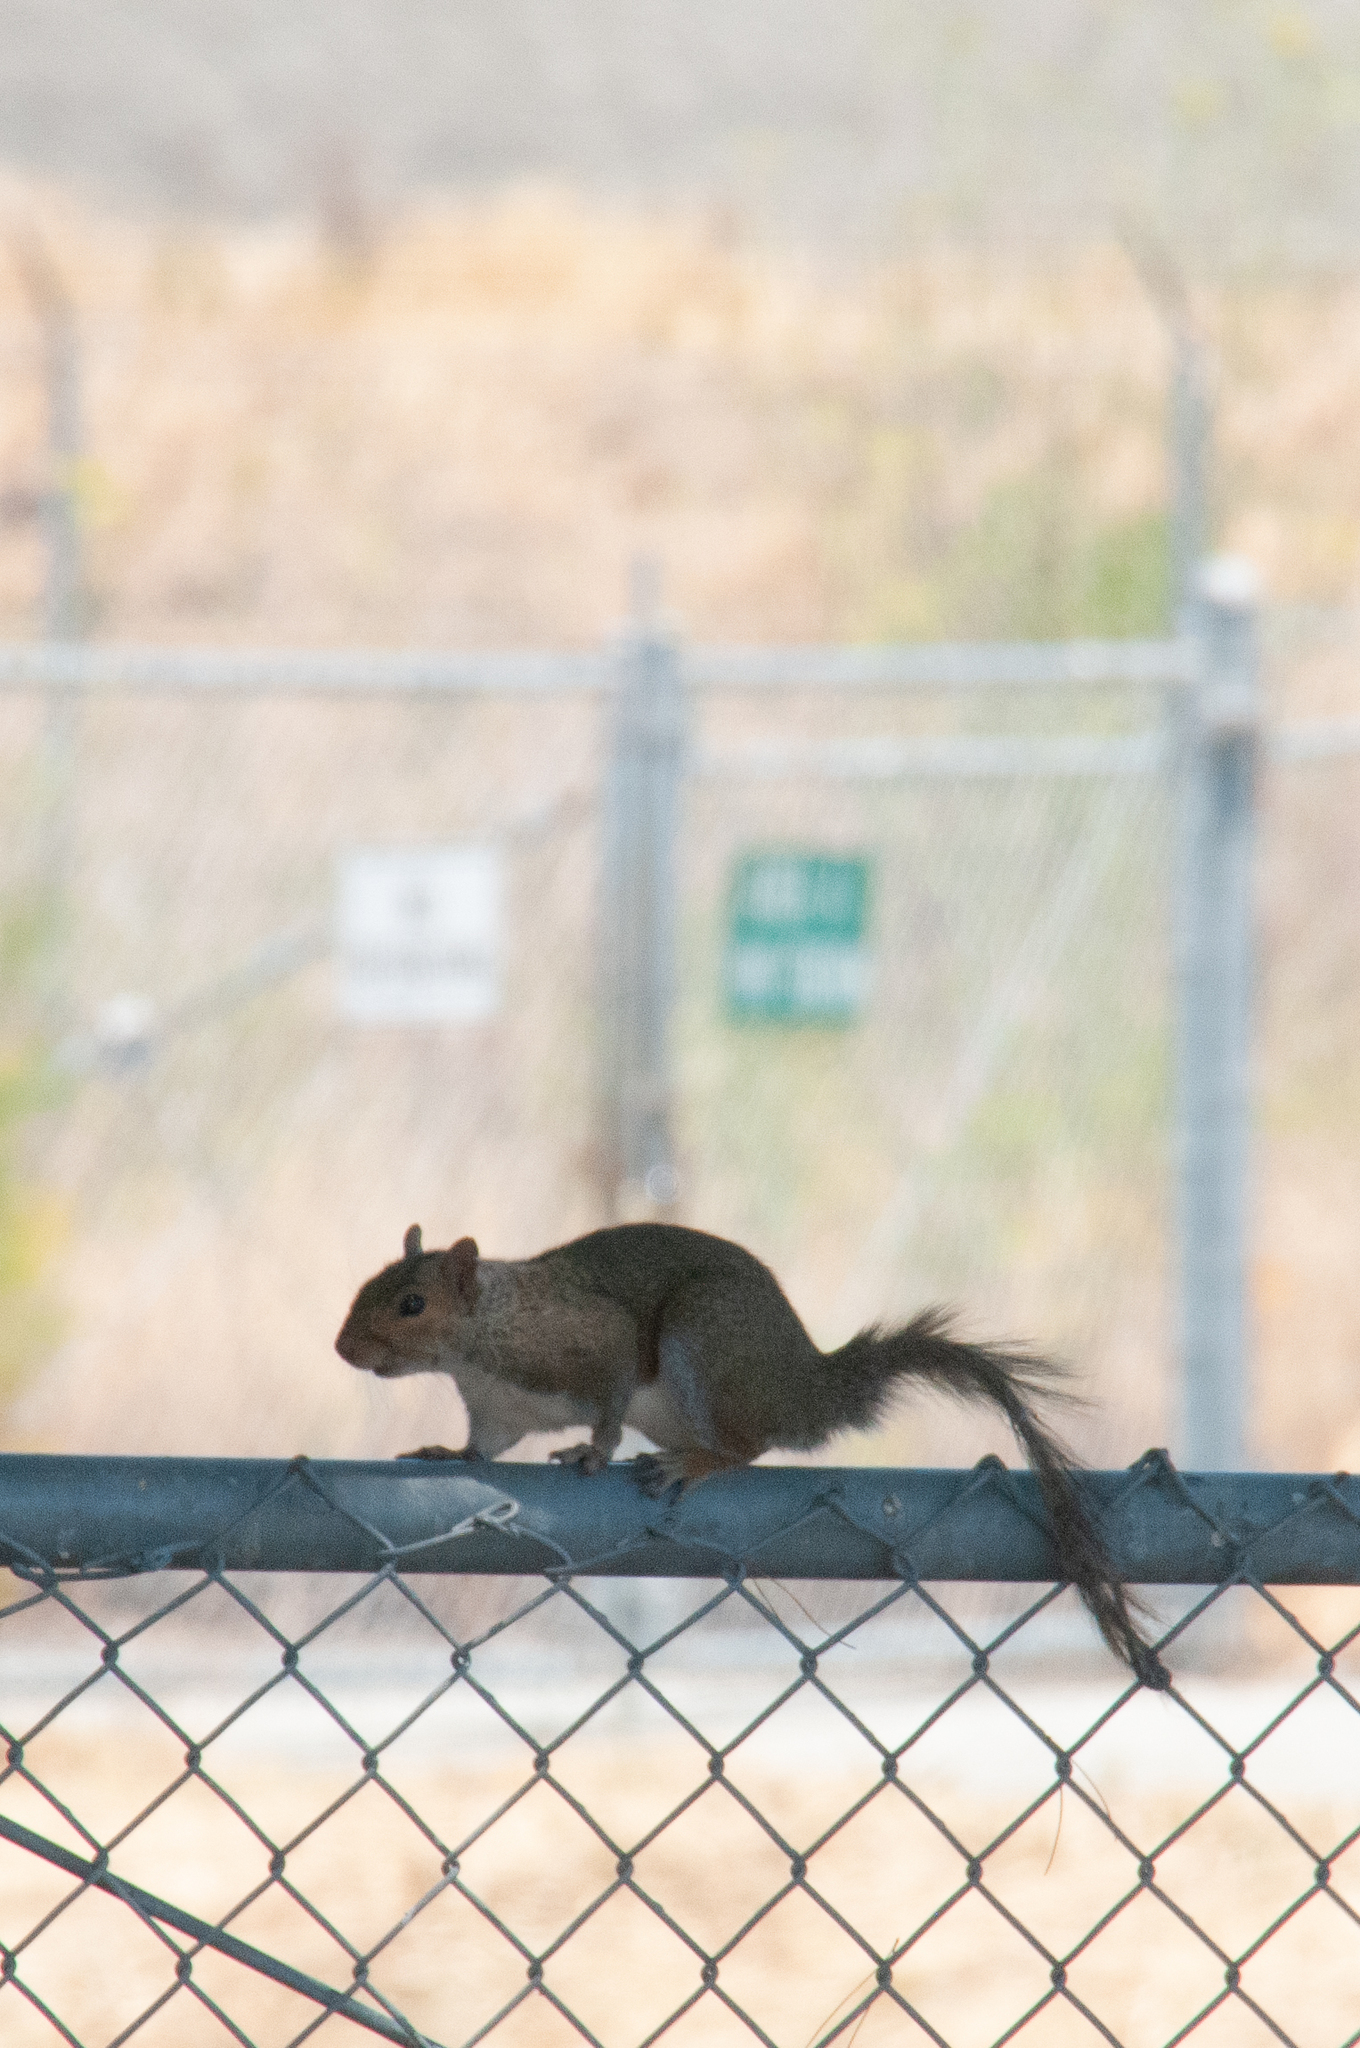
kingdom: Animalia
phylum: Chordata
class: Mammalia
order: Rodentia
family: Sciuridae
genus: Sciurus
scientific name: Sciurus carolinensis
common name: Eastern gray squirrel
